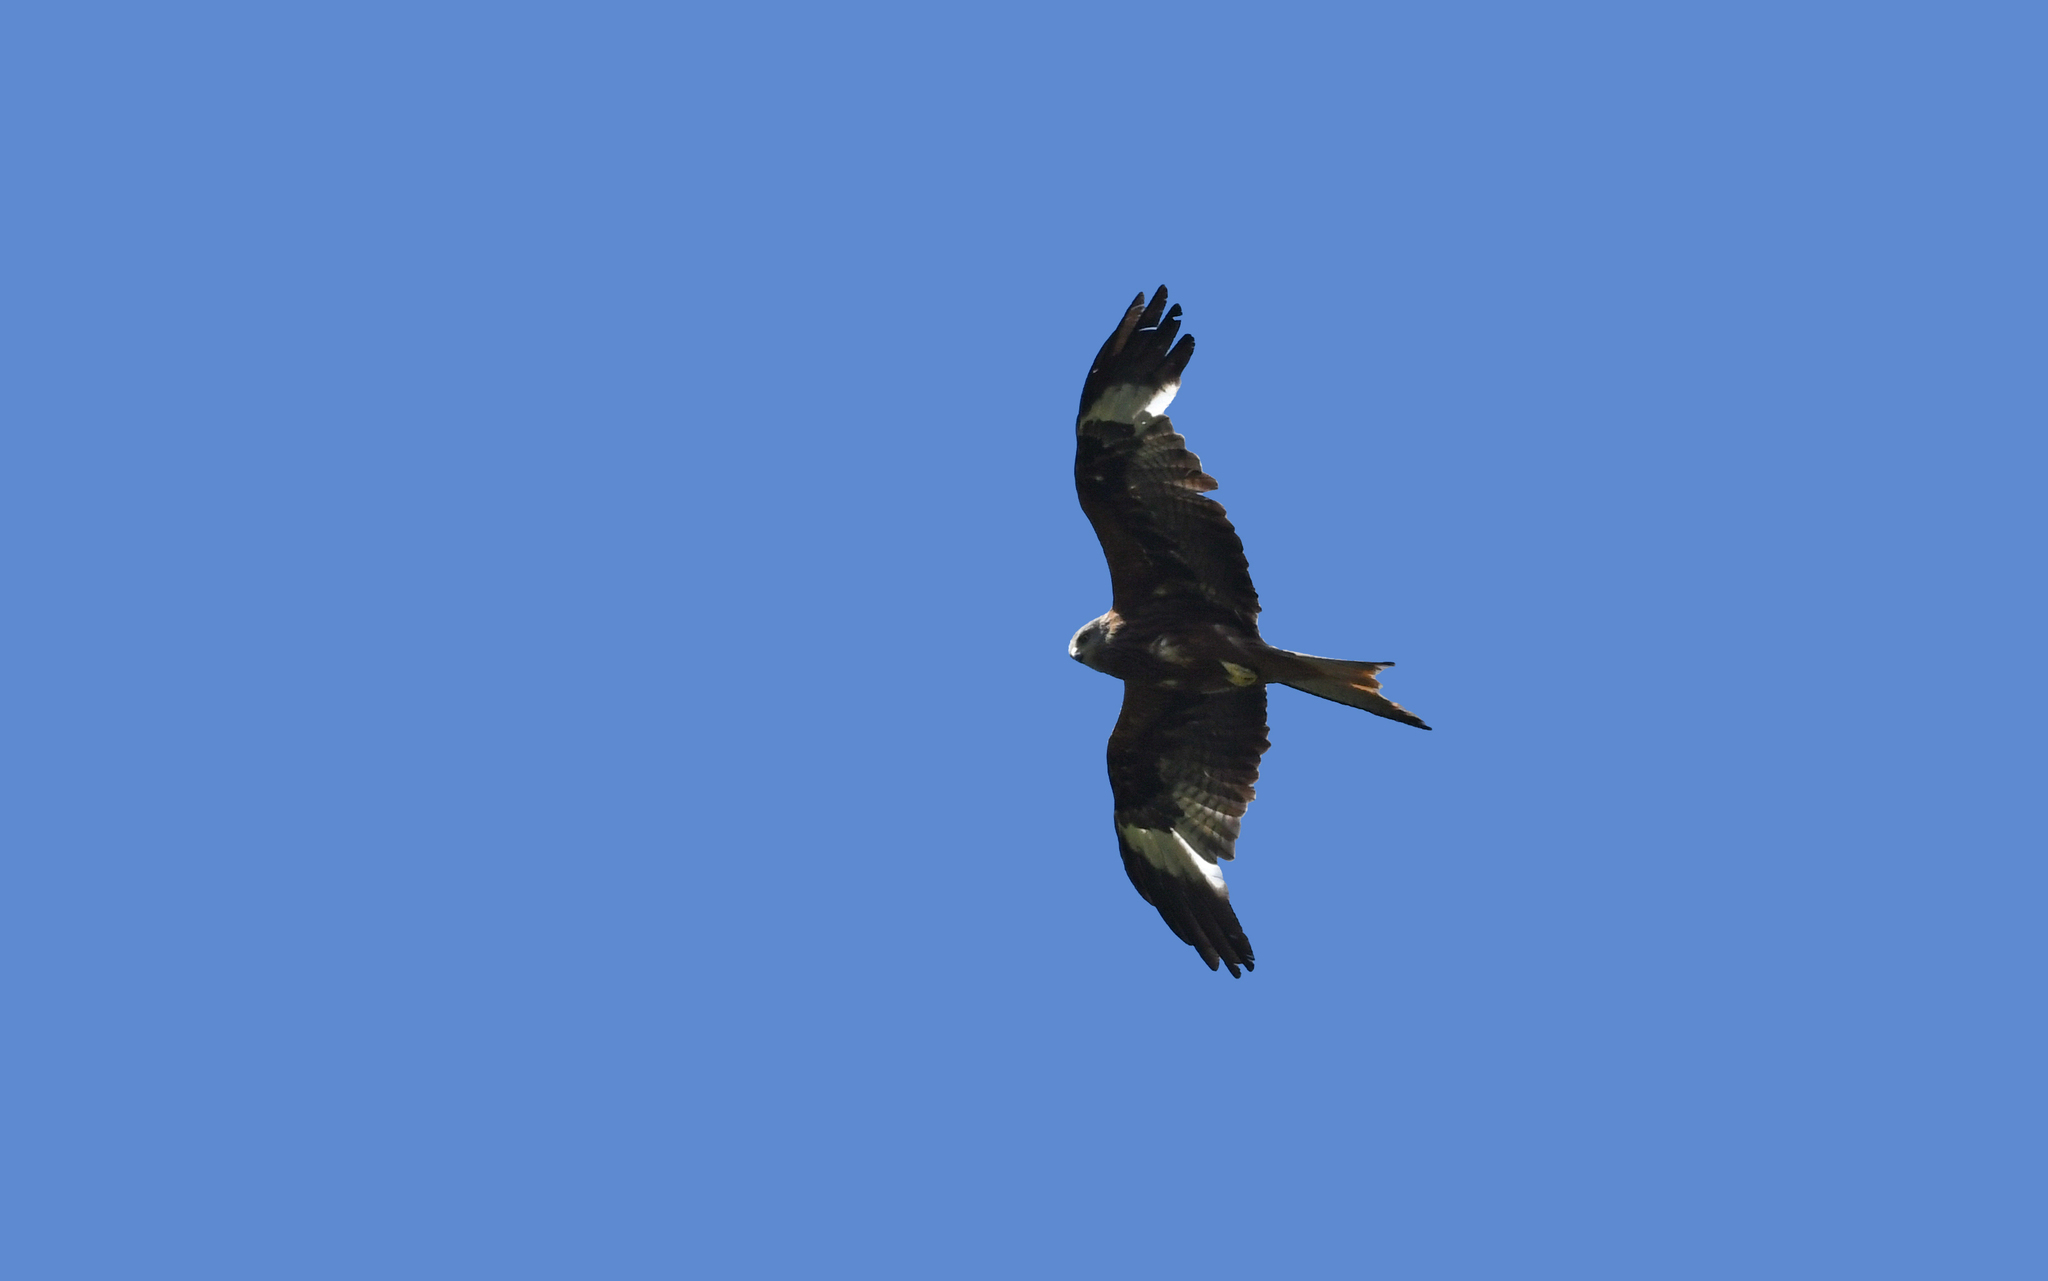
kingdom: Animalia
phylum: Chordata
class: Aves
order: Accipitriformes
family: Accipitridae
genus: Milvus
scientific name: Milvus milvus
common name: Red kite
